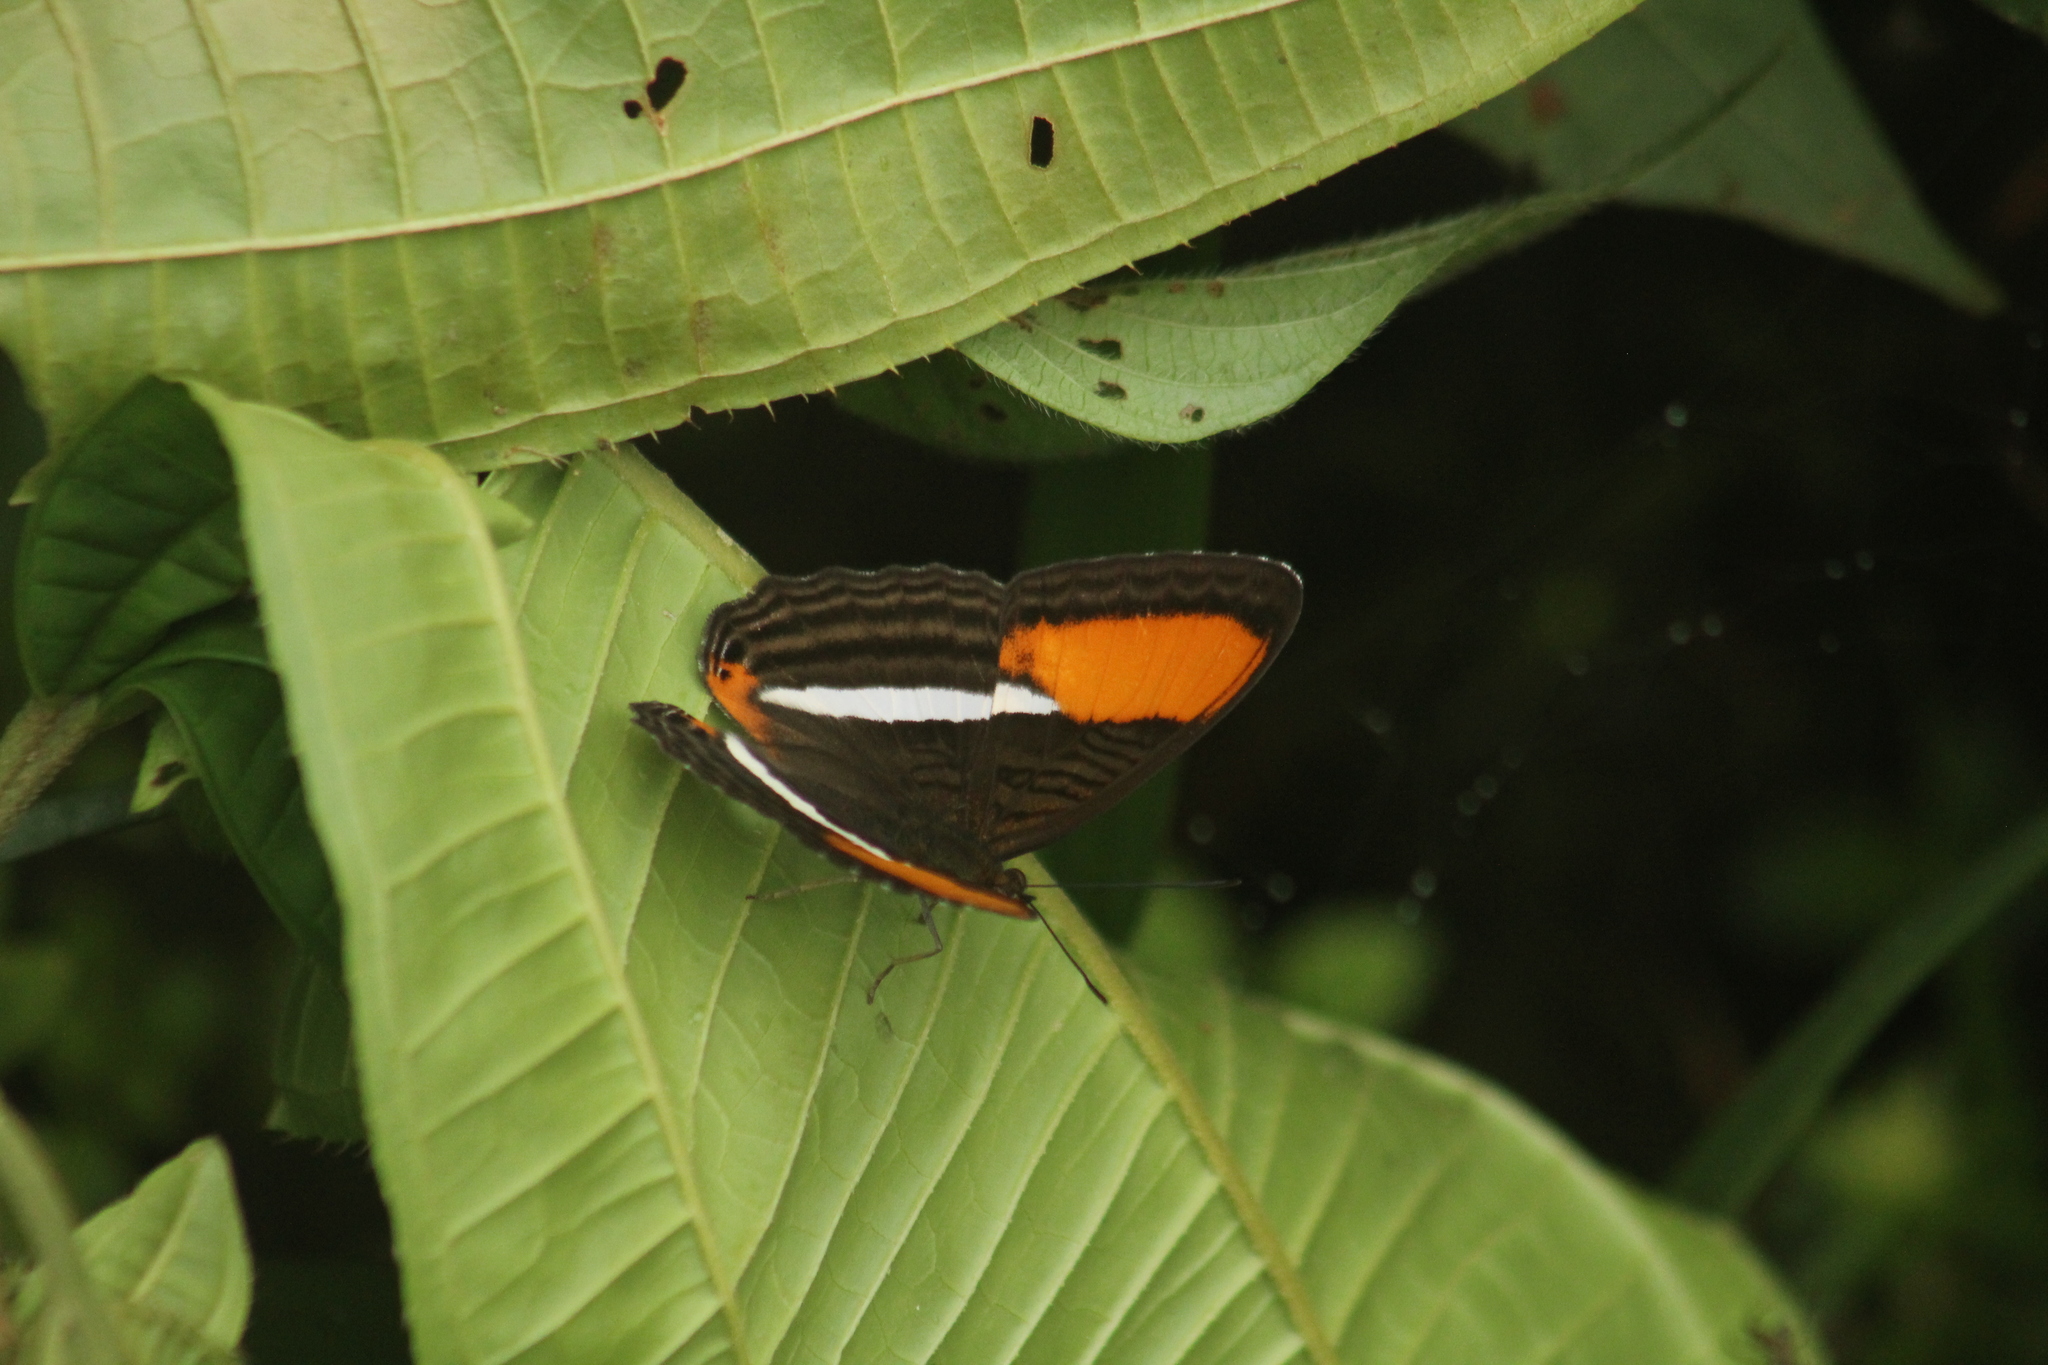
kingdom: Animalia
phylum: Arthropoda
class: Insecta
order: Lepidoptera
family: Nymphalidae
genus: Limenitis
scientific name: Limenitis cytherea
